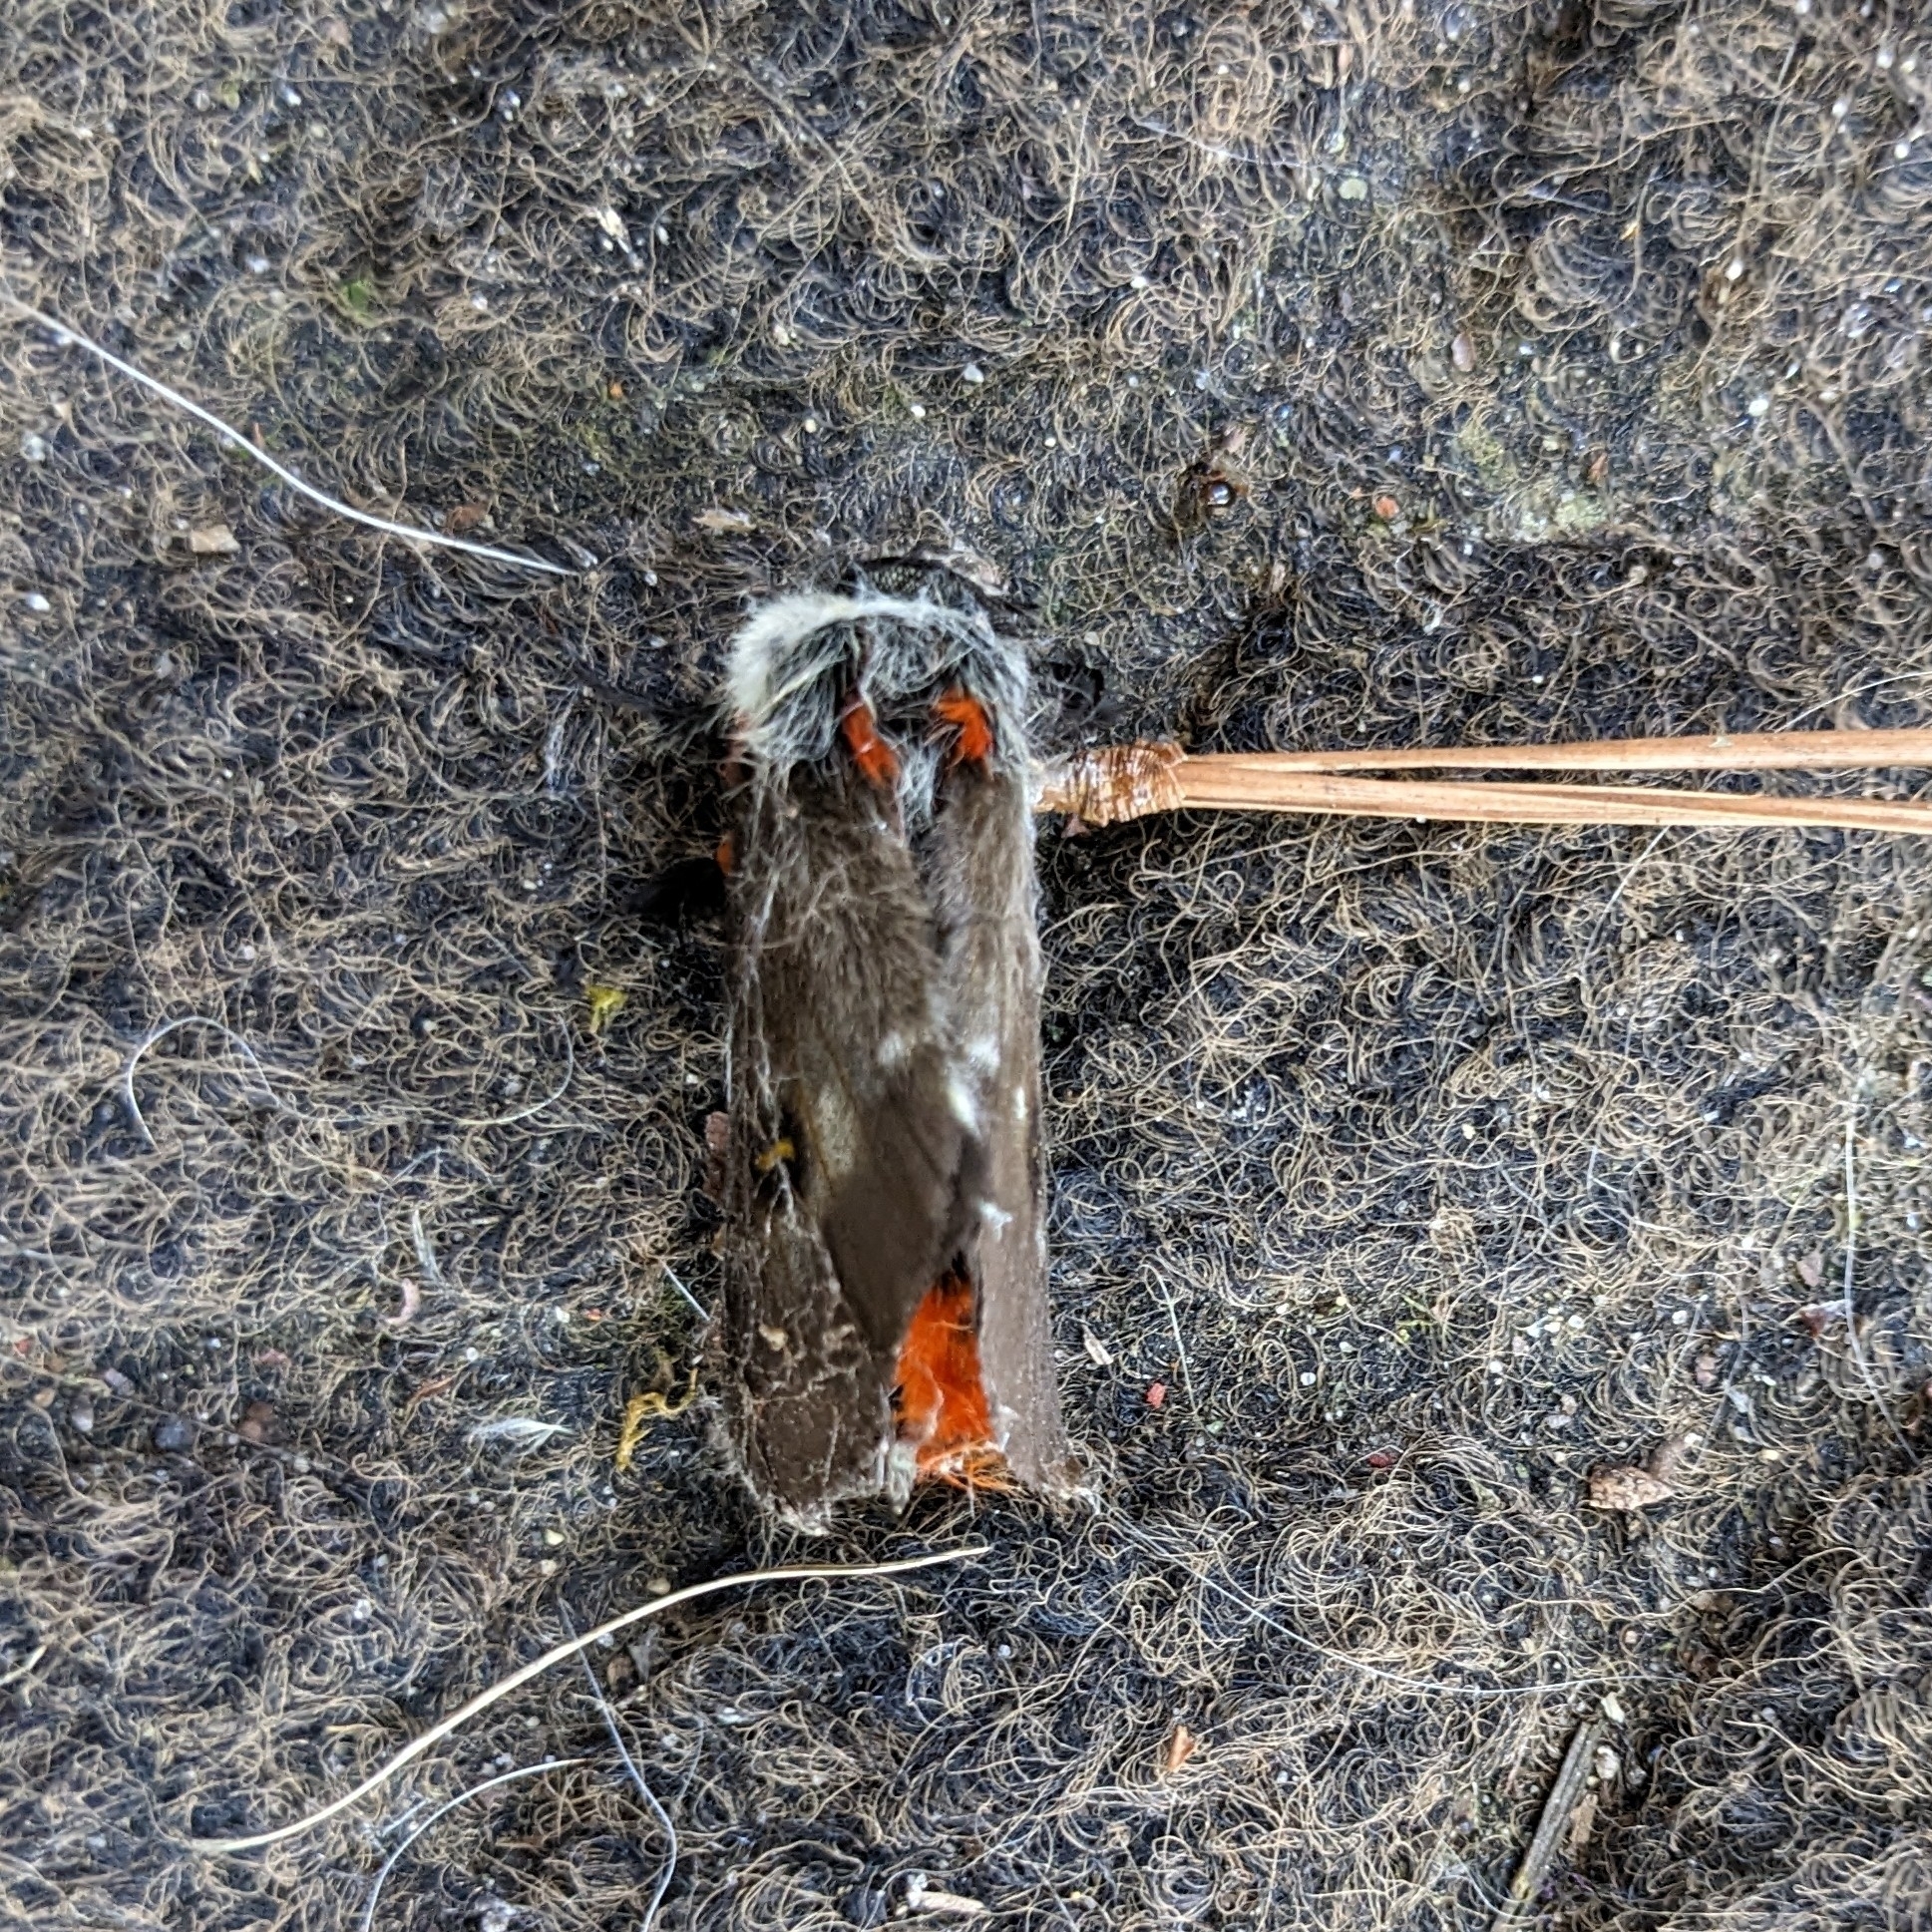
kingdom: Animalia
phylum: Arthropoda
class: Insecta
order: Lepidoptera
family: Saturniidae
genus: Hemileuca
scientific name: Hemileuca maia
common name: Eastern buckmoth
